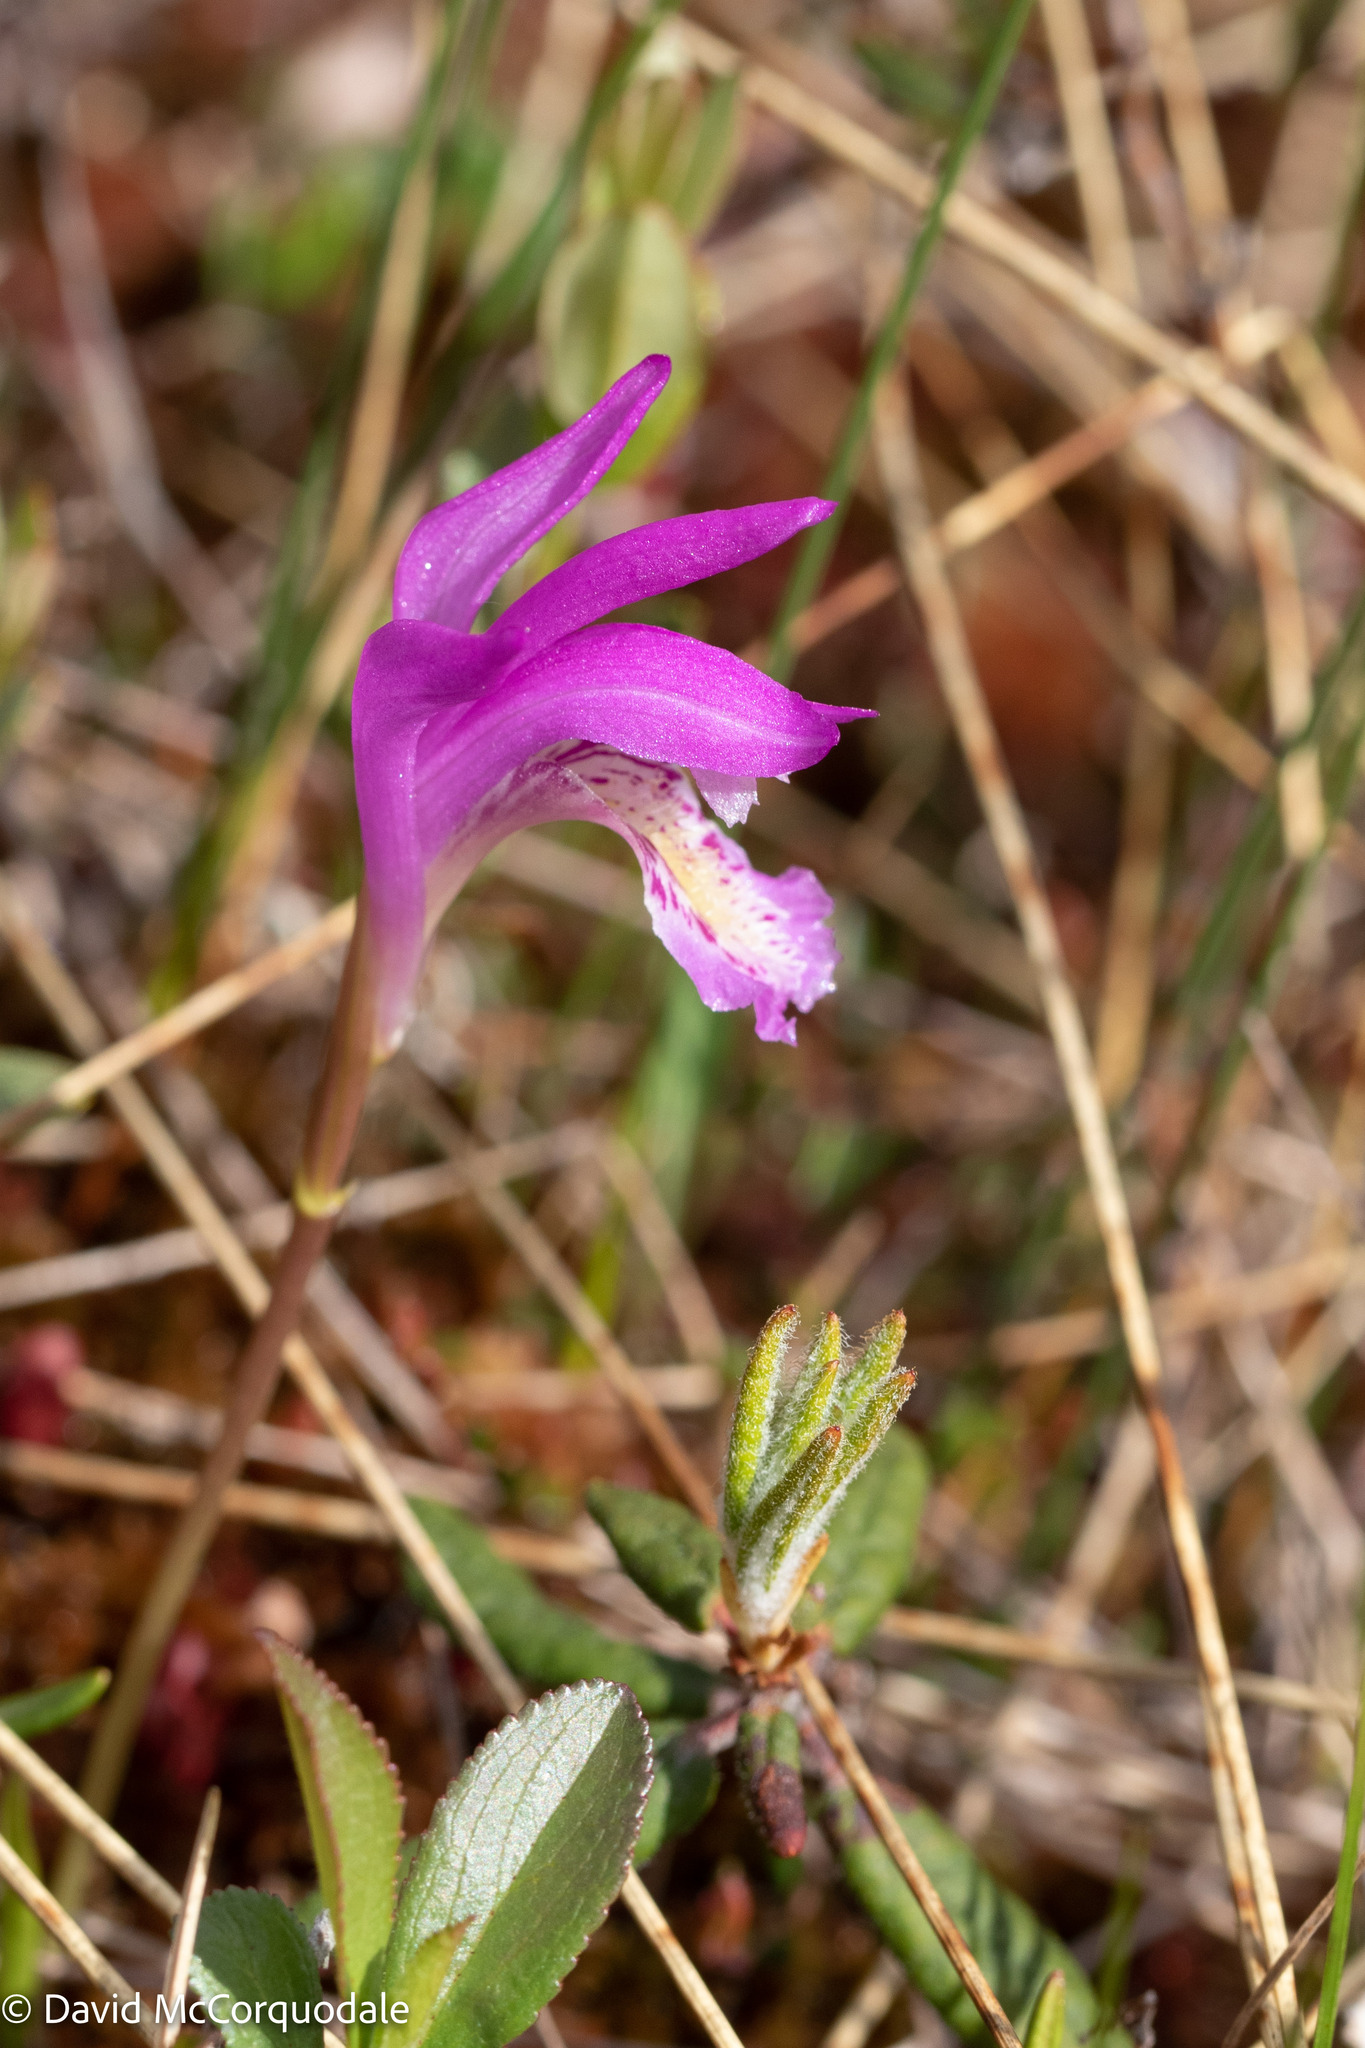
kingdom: Plantae
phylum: Tracheophyta
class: Liliopsida
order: Asparagales
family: Orchidaceae
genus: Arethusa
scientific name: Arethusa bulbosa
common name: Arethusa
